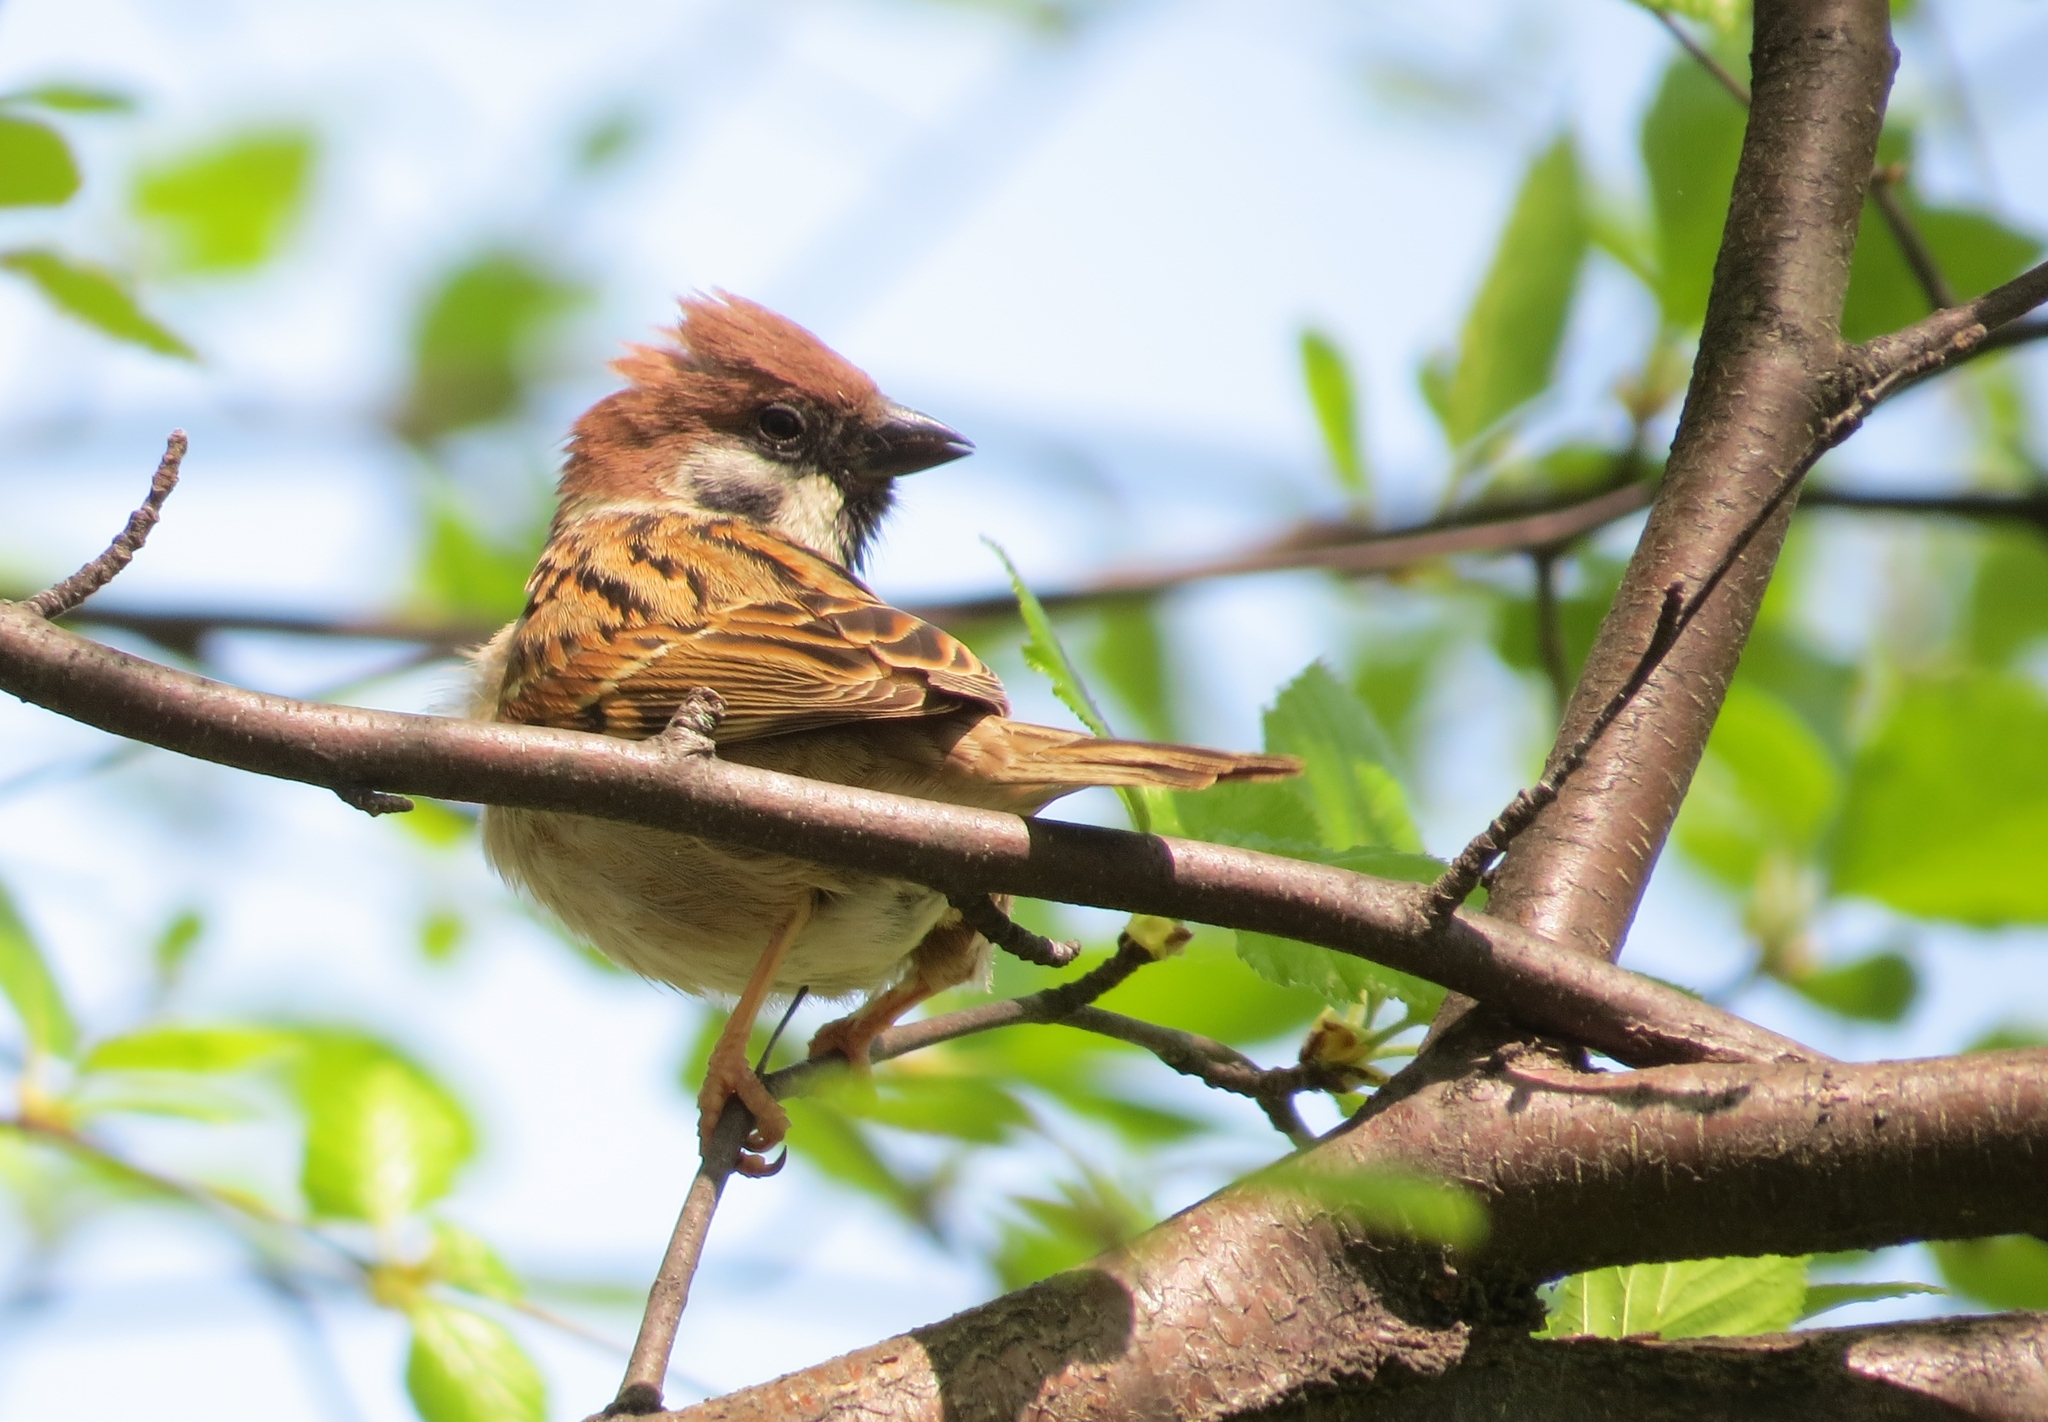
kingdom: Animalia
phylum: Chordata
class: Aves
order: Passeriformes
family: Passeridae
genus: Passer
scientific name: Passer montanus
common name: Eurasian tree sparrow
